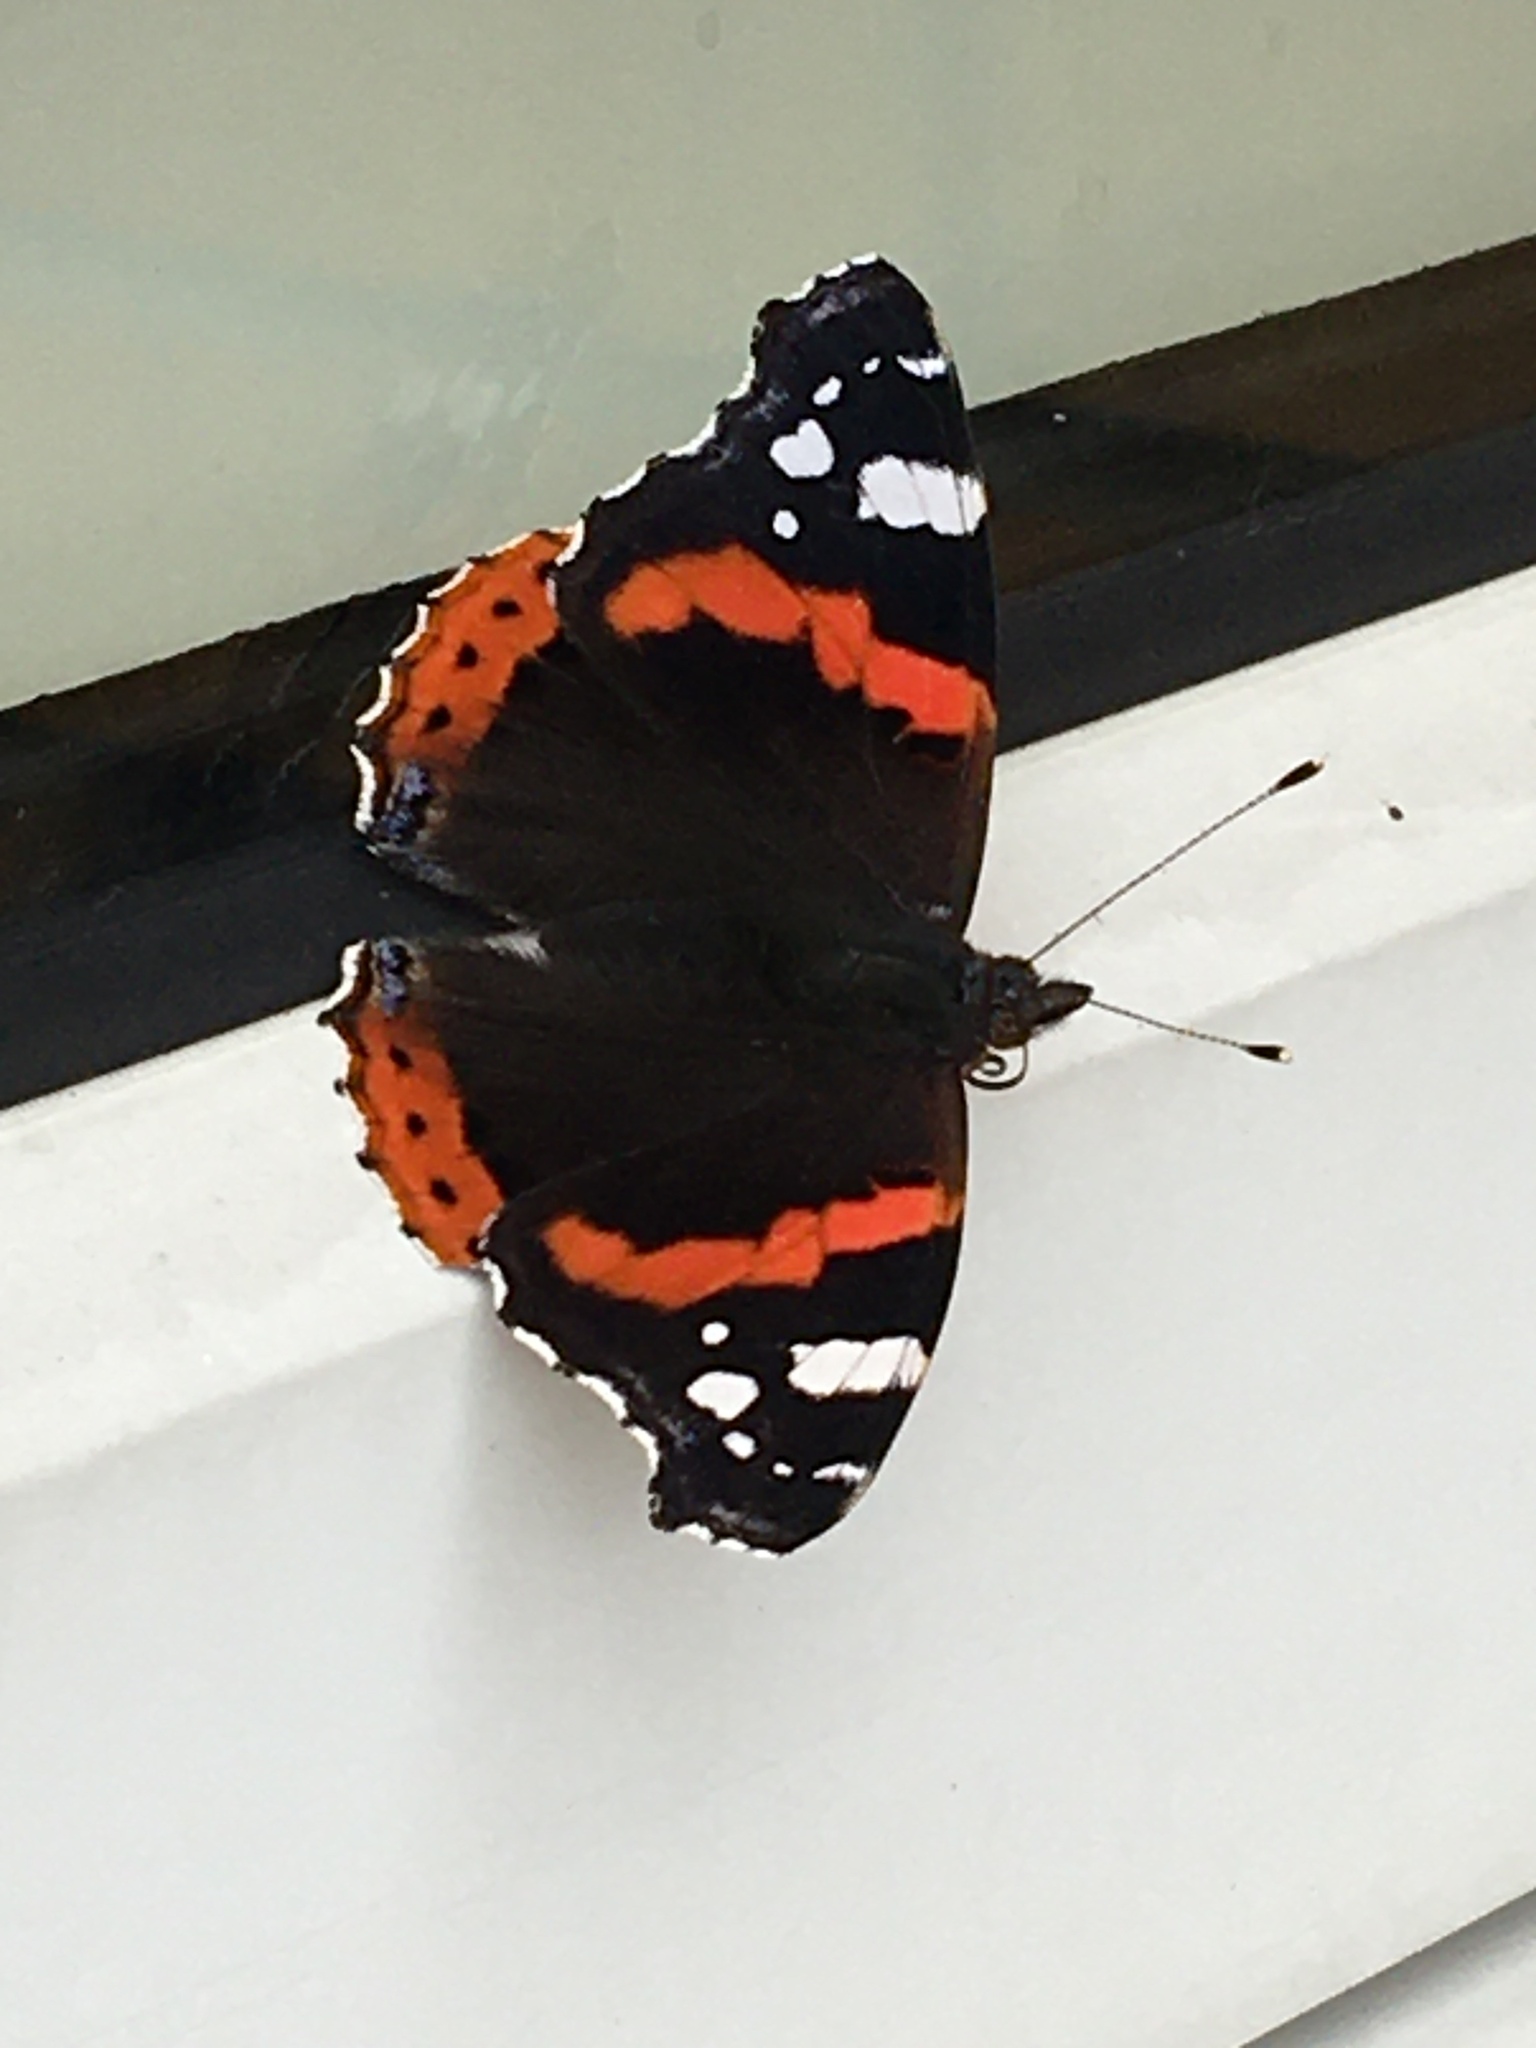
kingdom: Animalia
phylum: Arthropoda
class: Insecta
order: Lepidoptera
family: Nymphalidae
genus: Vanessa
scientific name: Vanessa atalanta
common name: Red admiral
